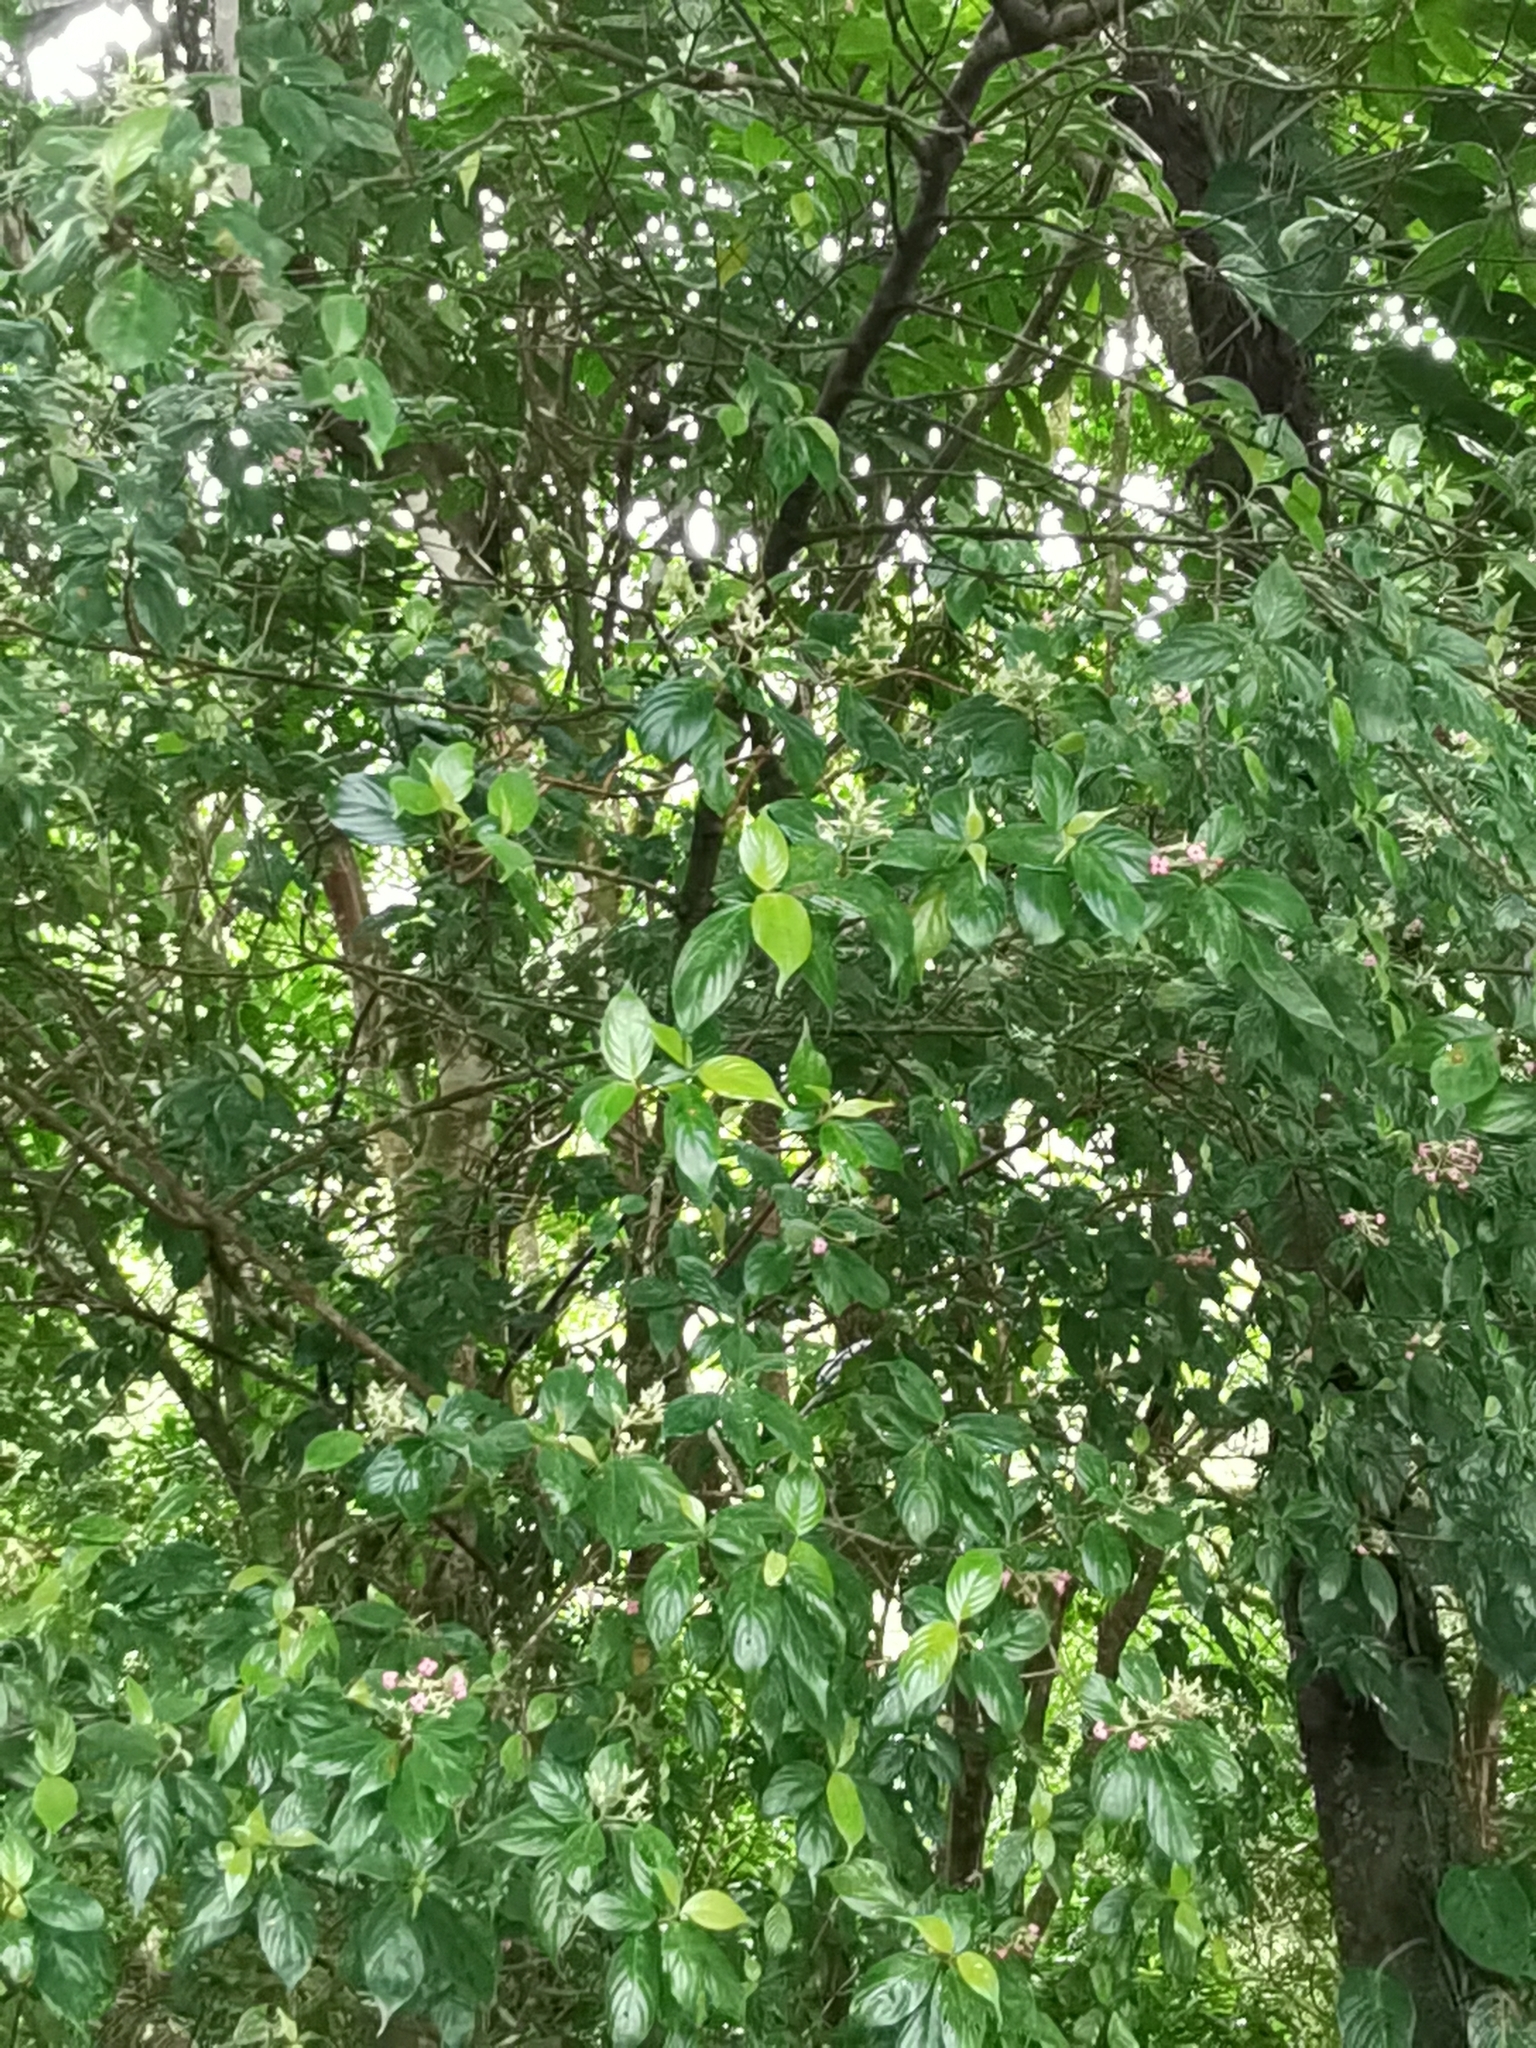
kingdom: Plantae
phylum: Tracheophyta
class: Magnoliopsida
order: Gentianales
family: Rubiaceae
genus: Arachnothryx
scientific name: Arachnothryx calycosa
